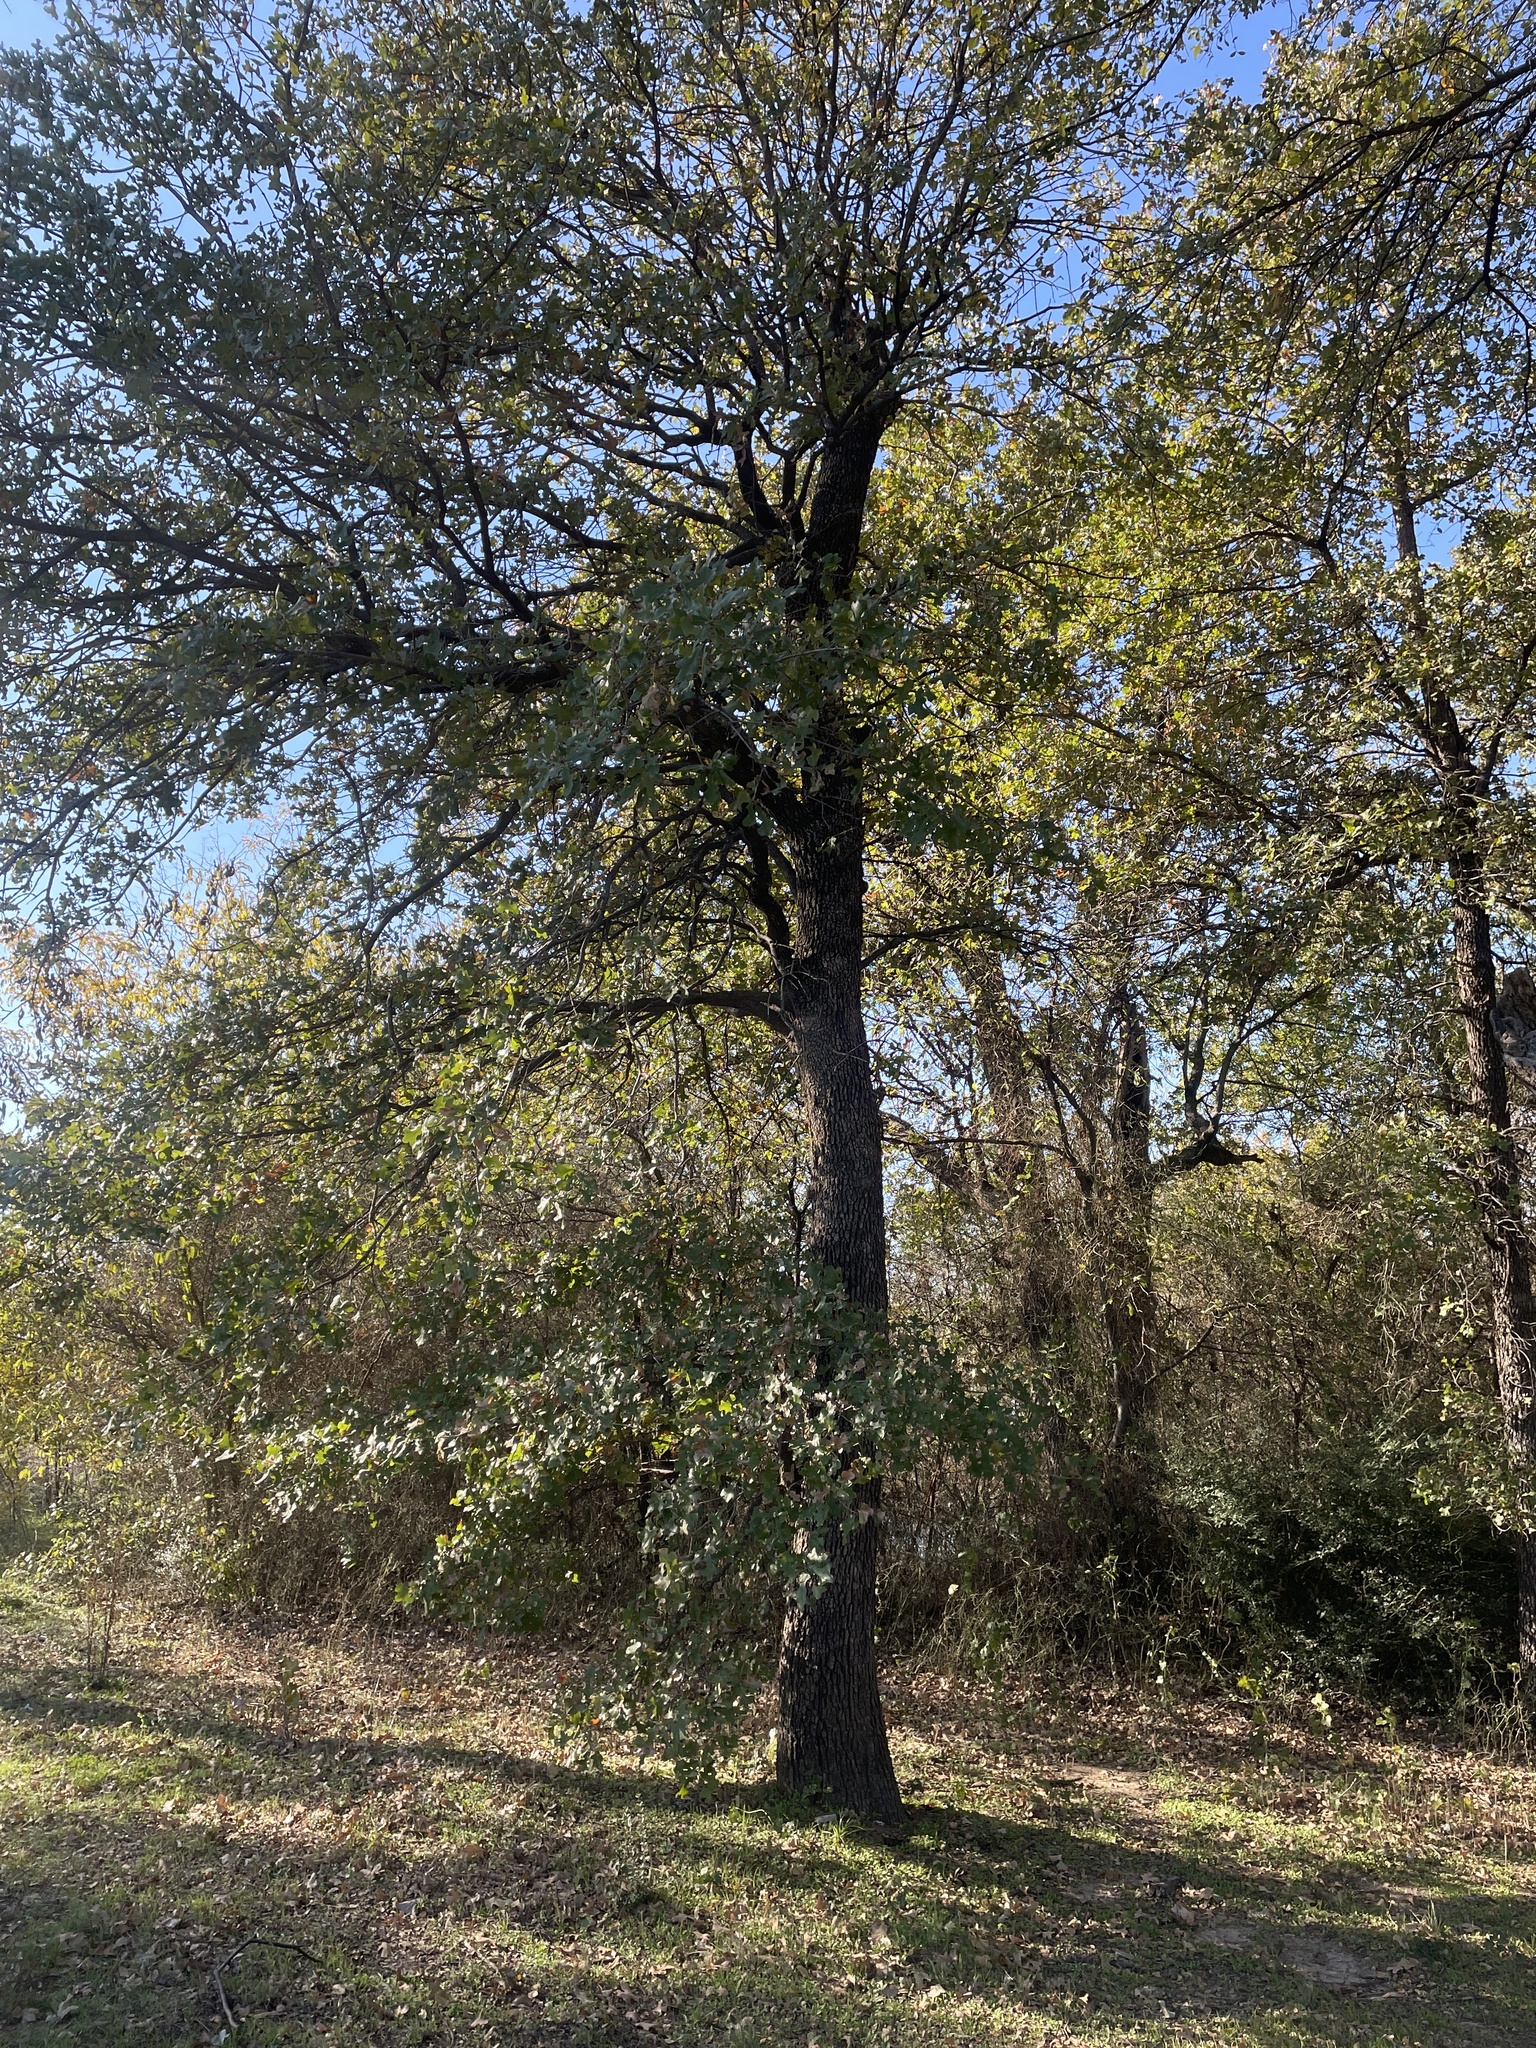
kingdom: Plantae
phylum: Tracheophyta
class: Magnoliopsida
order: Fagales
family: Fagaceae
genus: Quercus
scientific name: Quercus stellata
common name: Post oak
